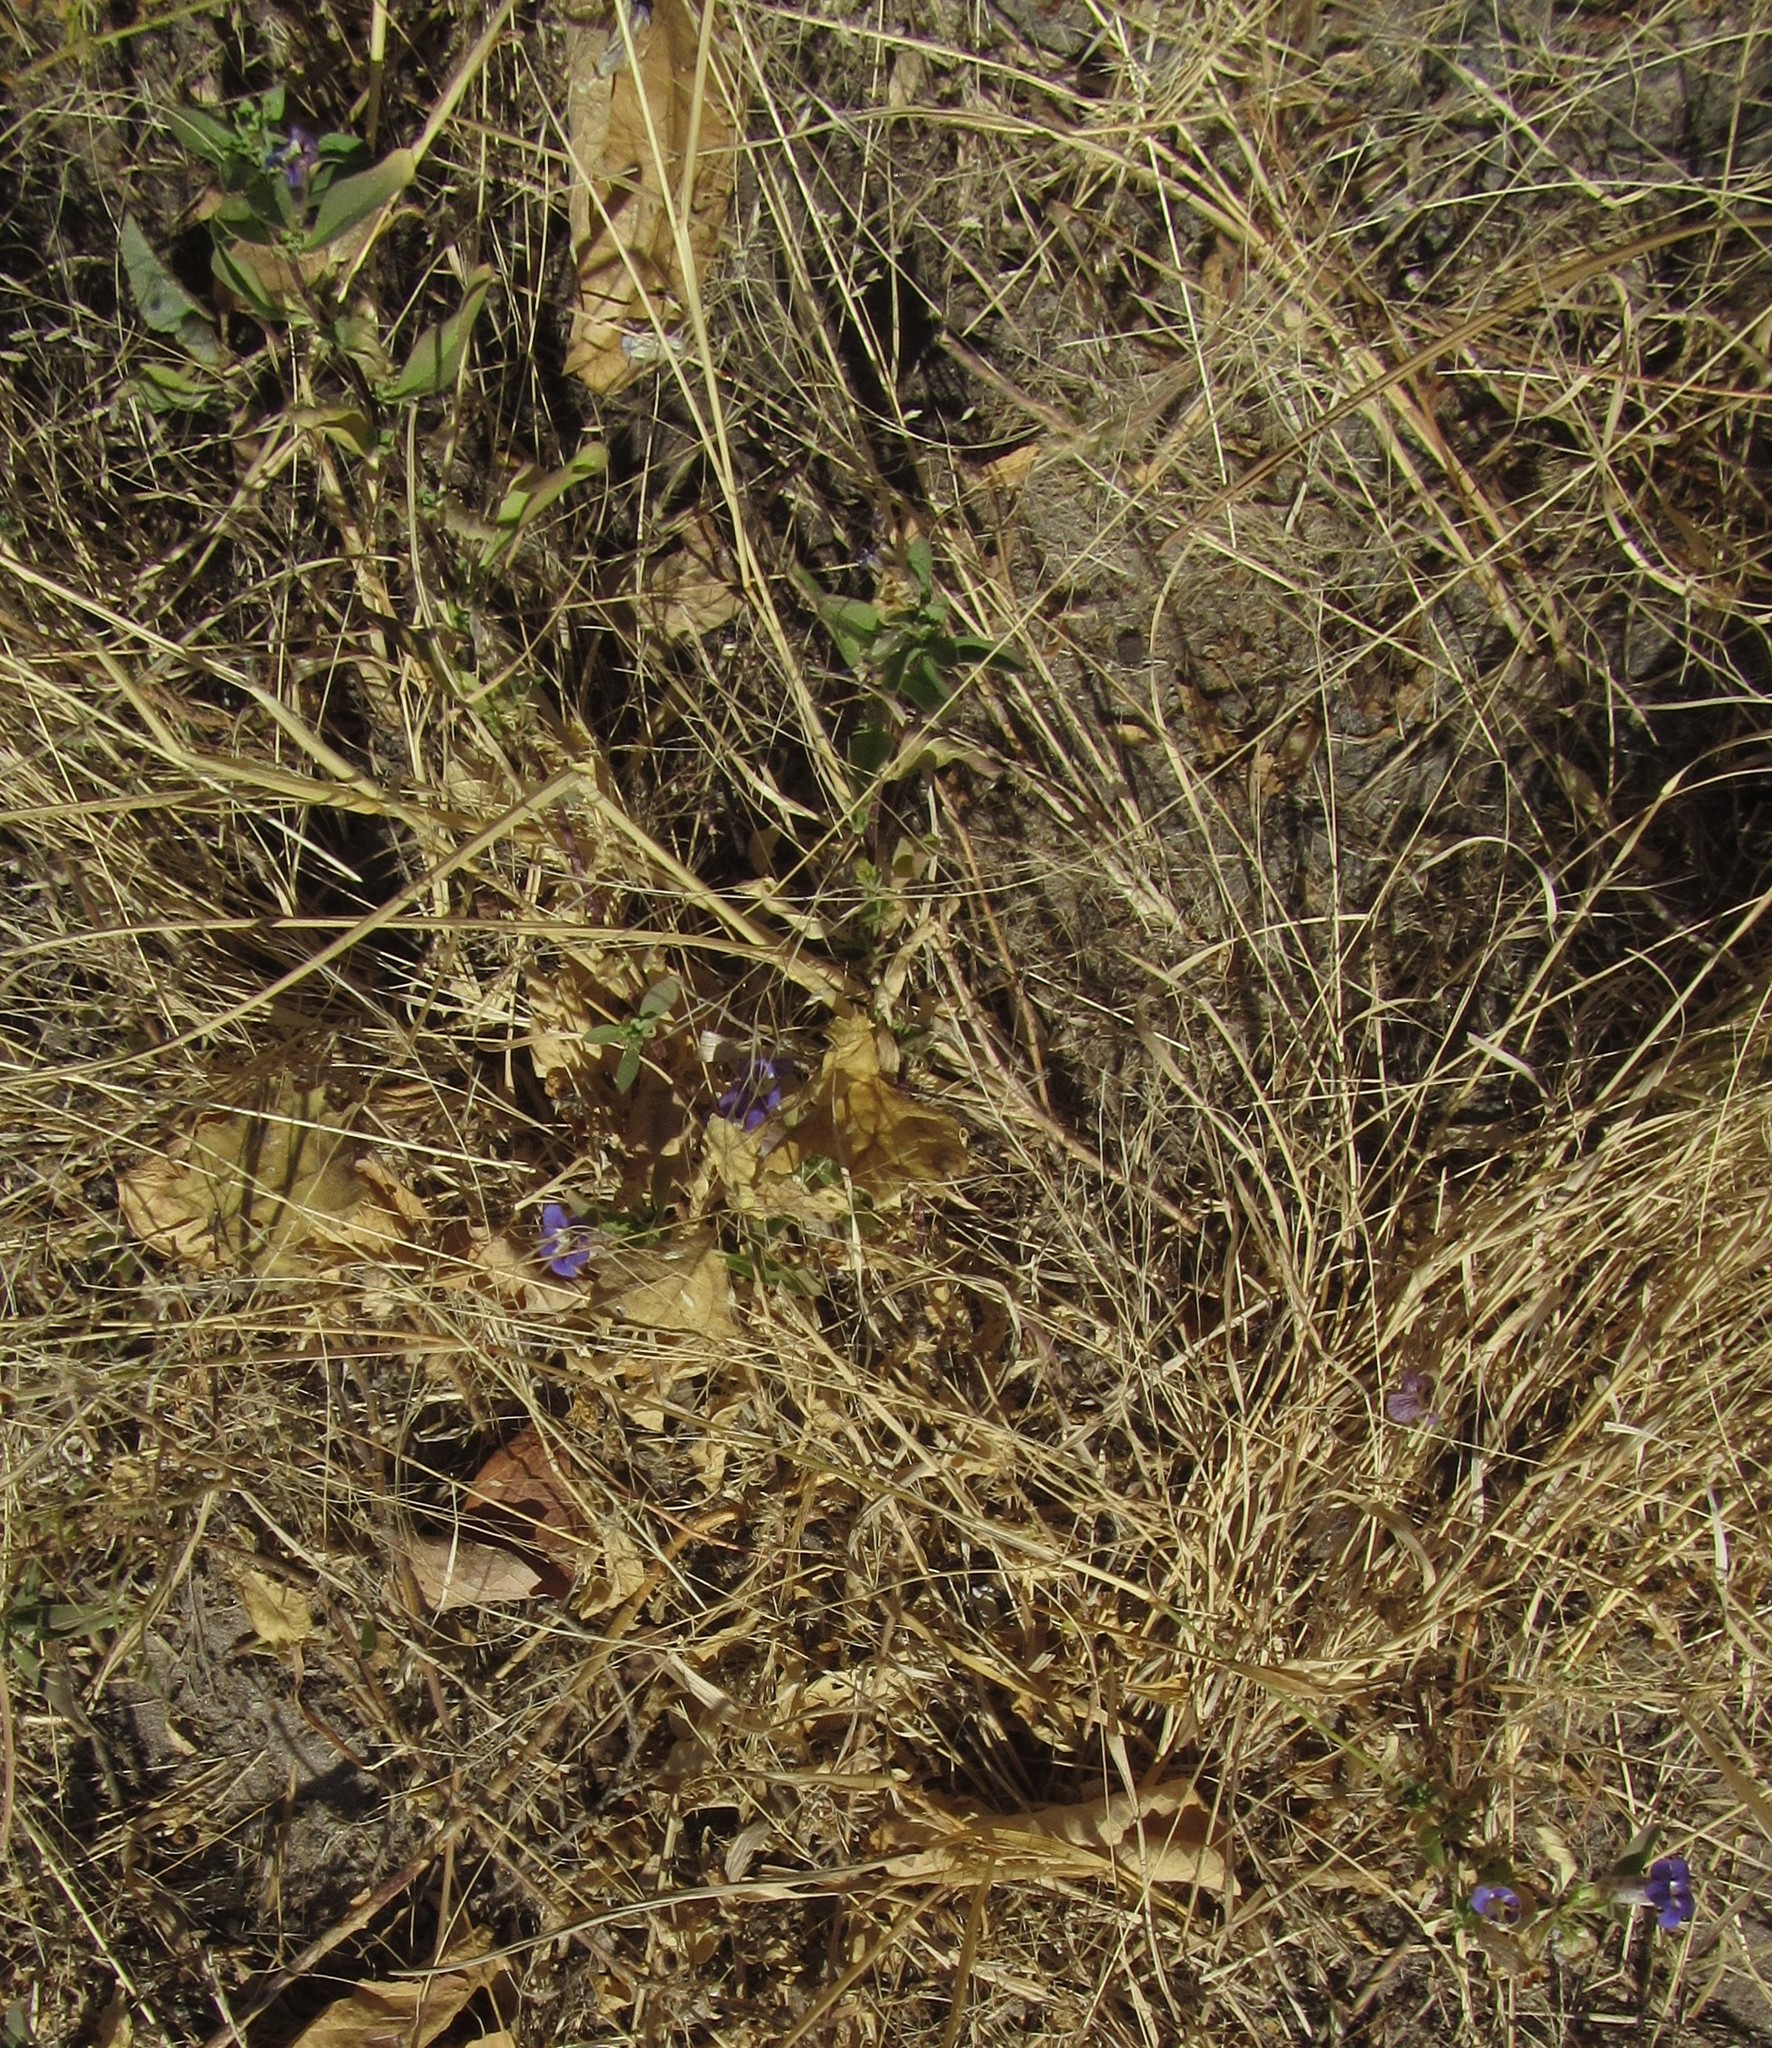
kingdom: Plantae
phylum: Tracheophyta
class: Magnoliopsida
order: Lamiales
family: Scrophulariaceae
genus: Aptosimum
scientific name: Aptosimum decumbens
